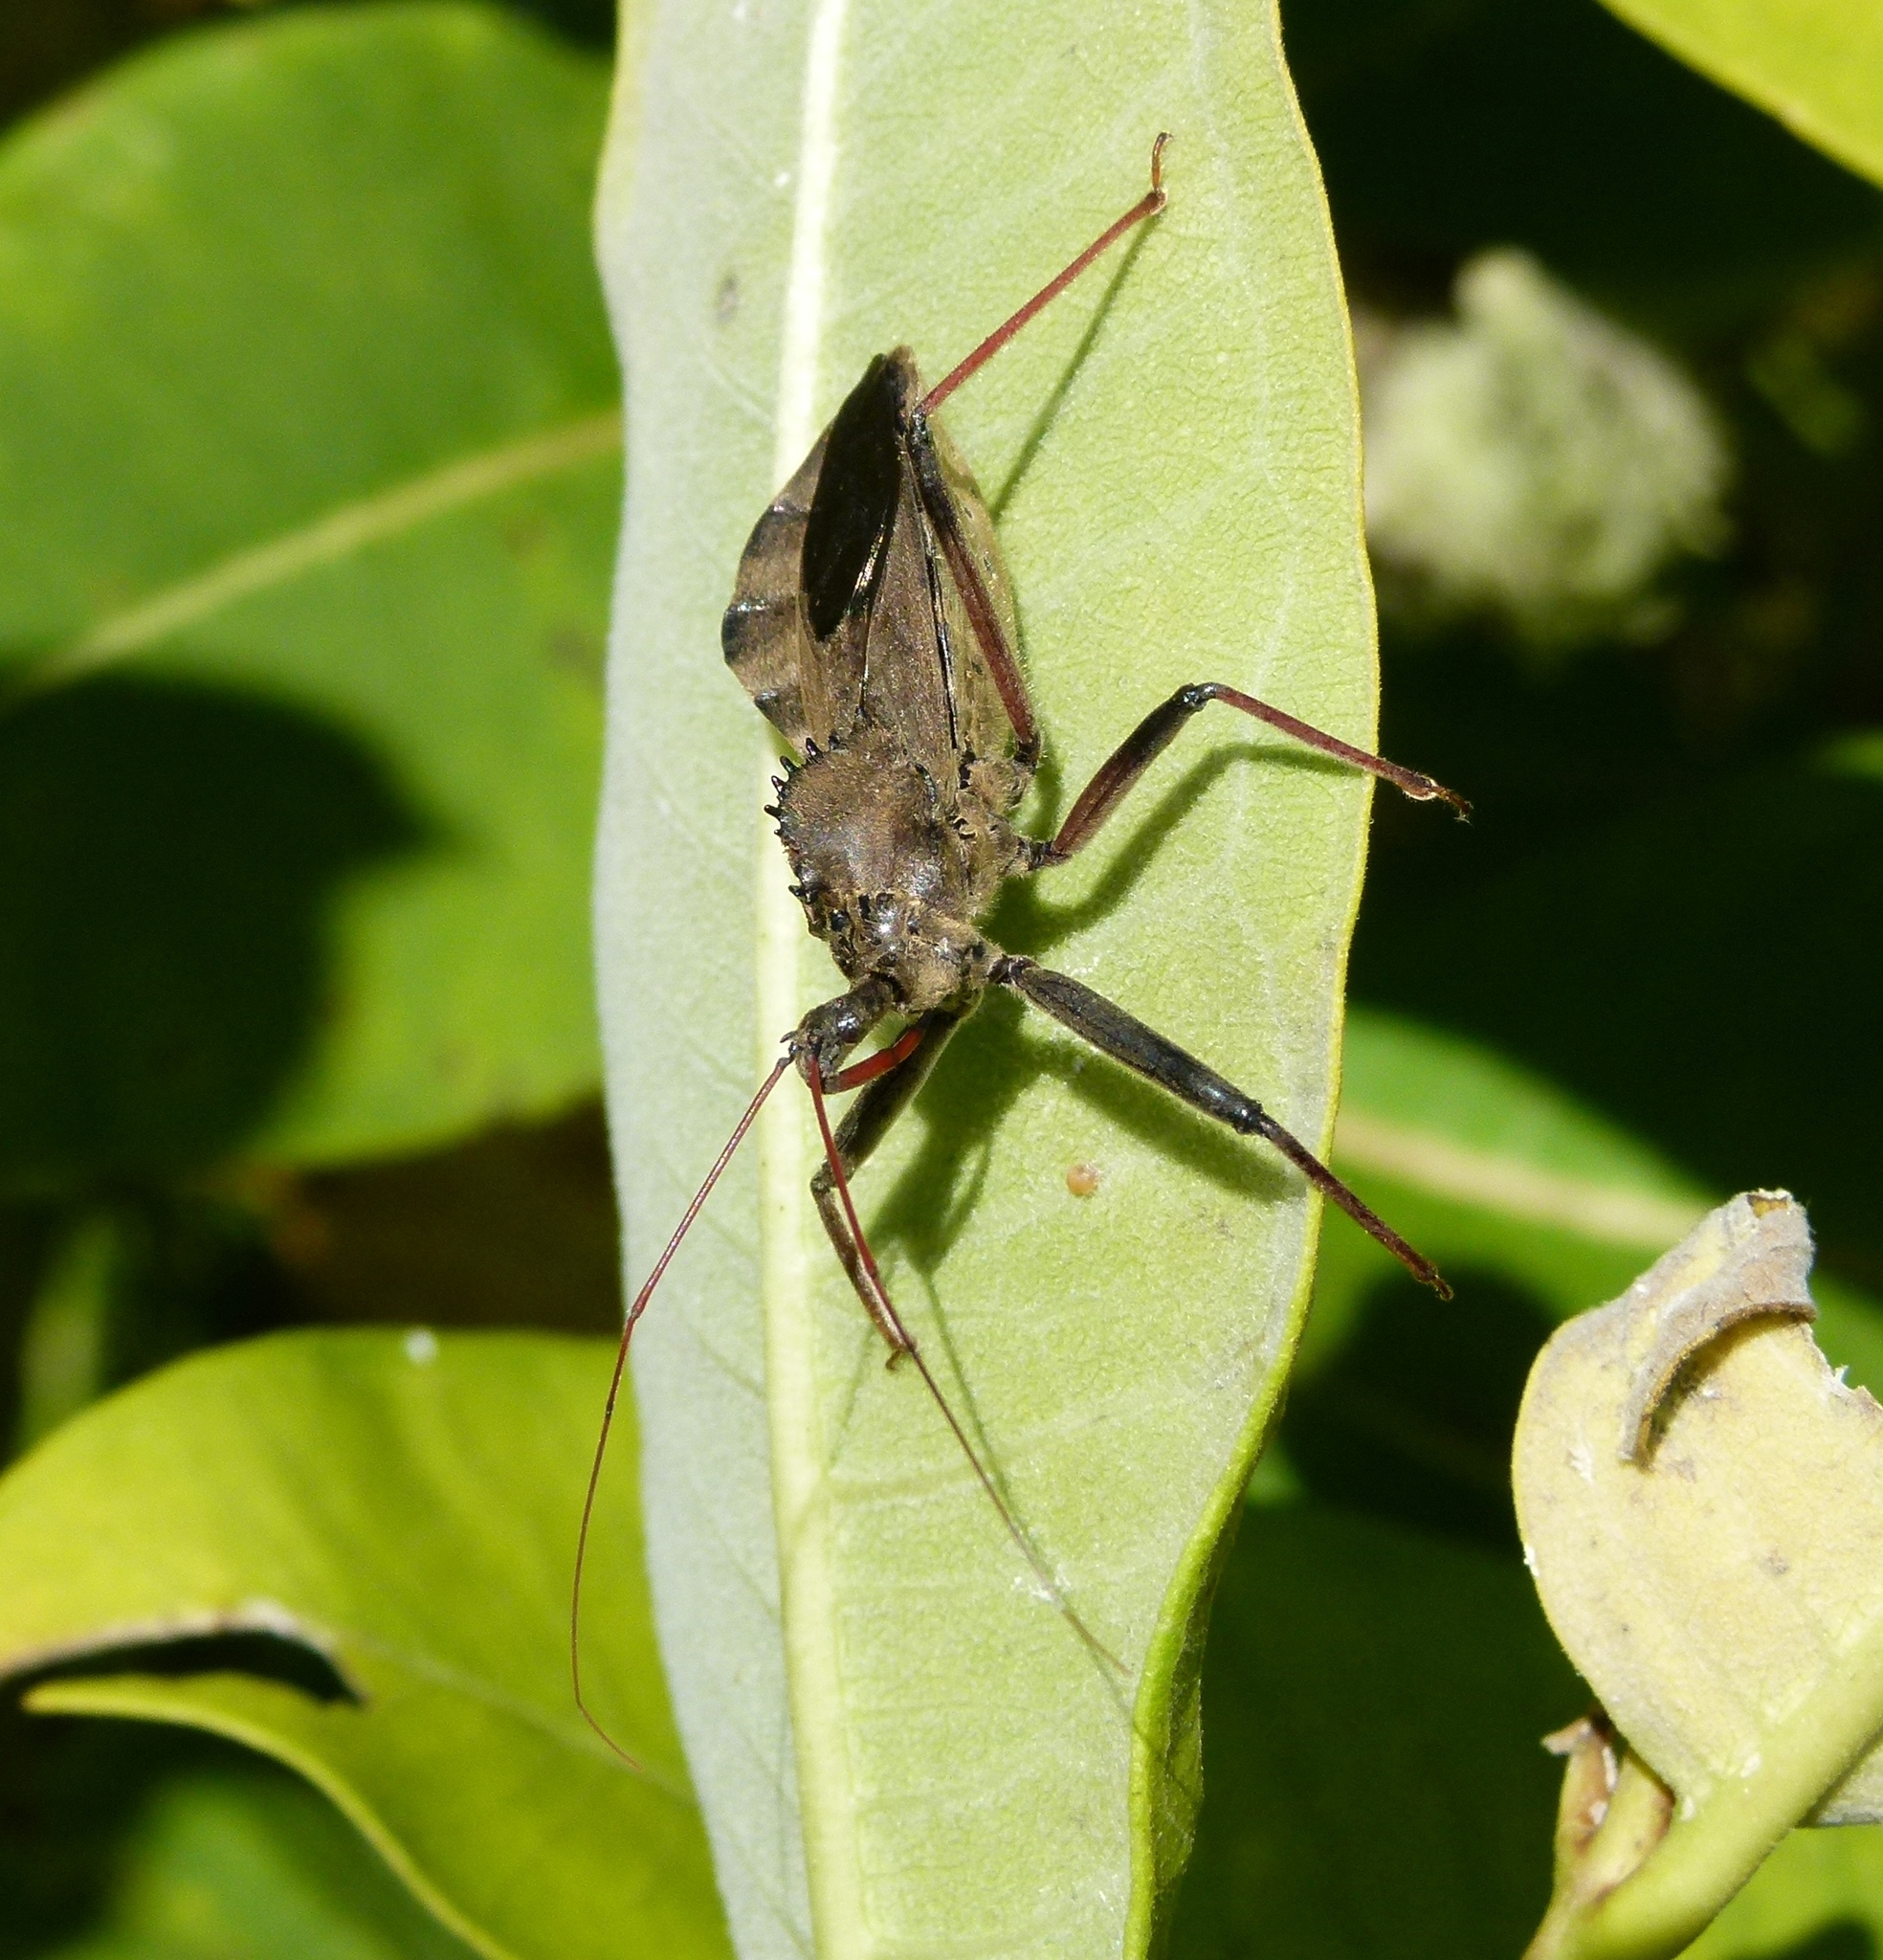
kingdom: Animalia
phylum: Arthropoda
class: Insecta
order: Hemiptera
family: Reduviidae
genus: Arilus
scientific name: Arilus cristatus
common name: North american wheel bug
